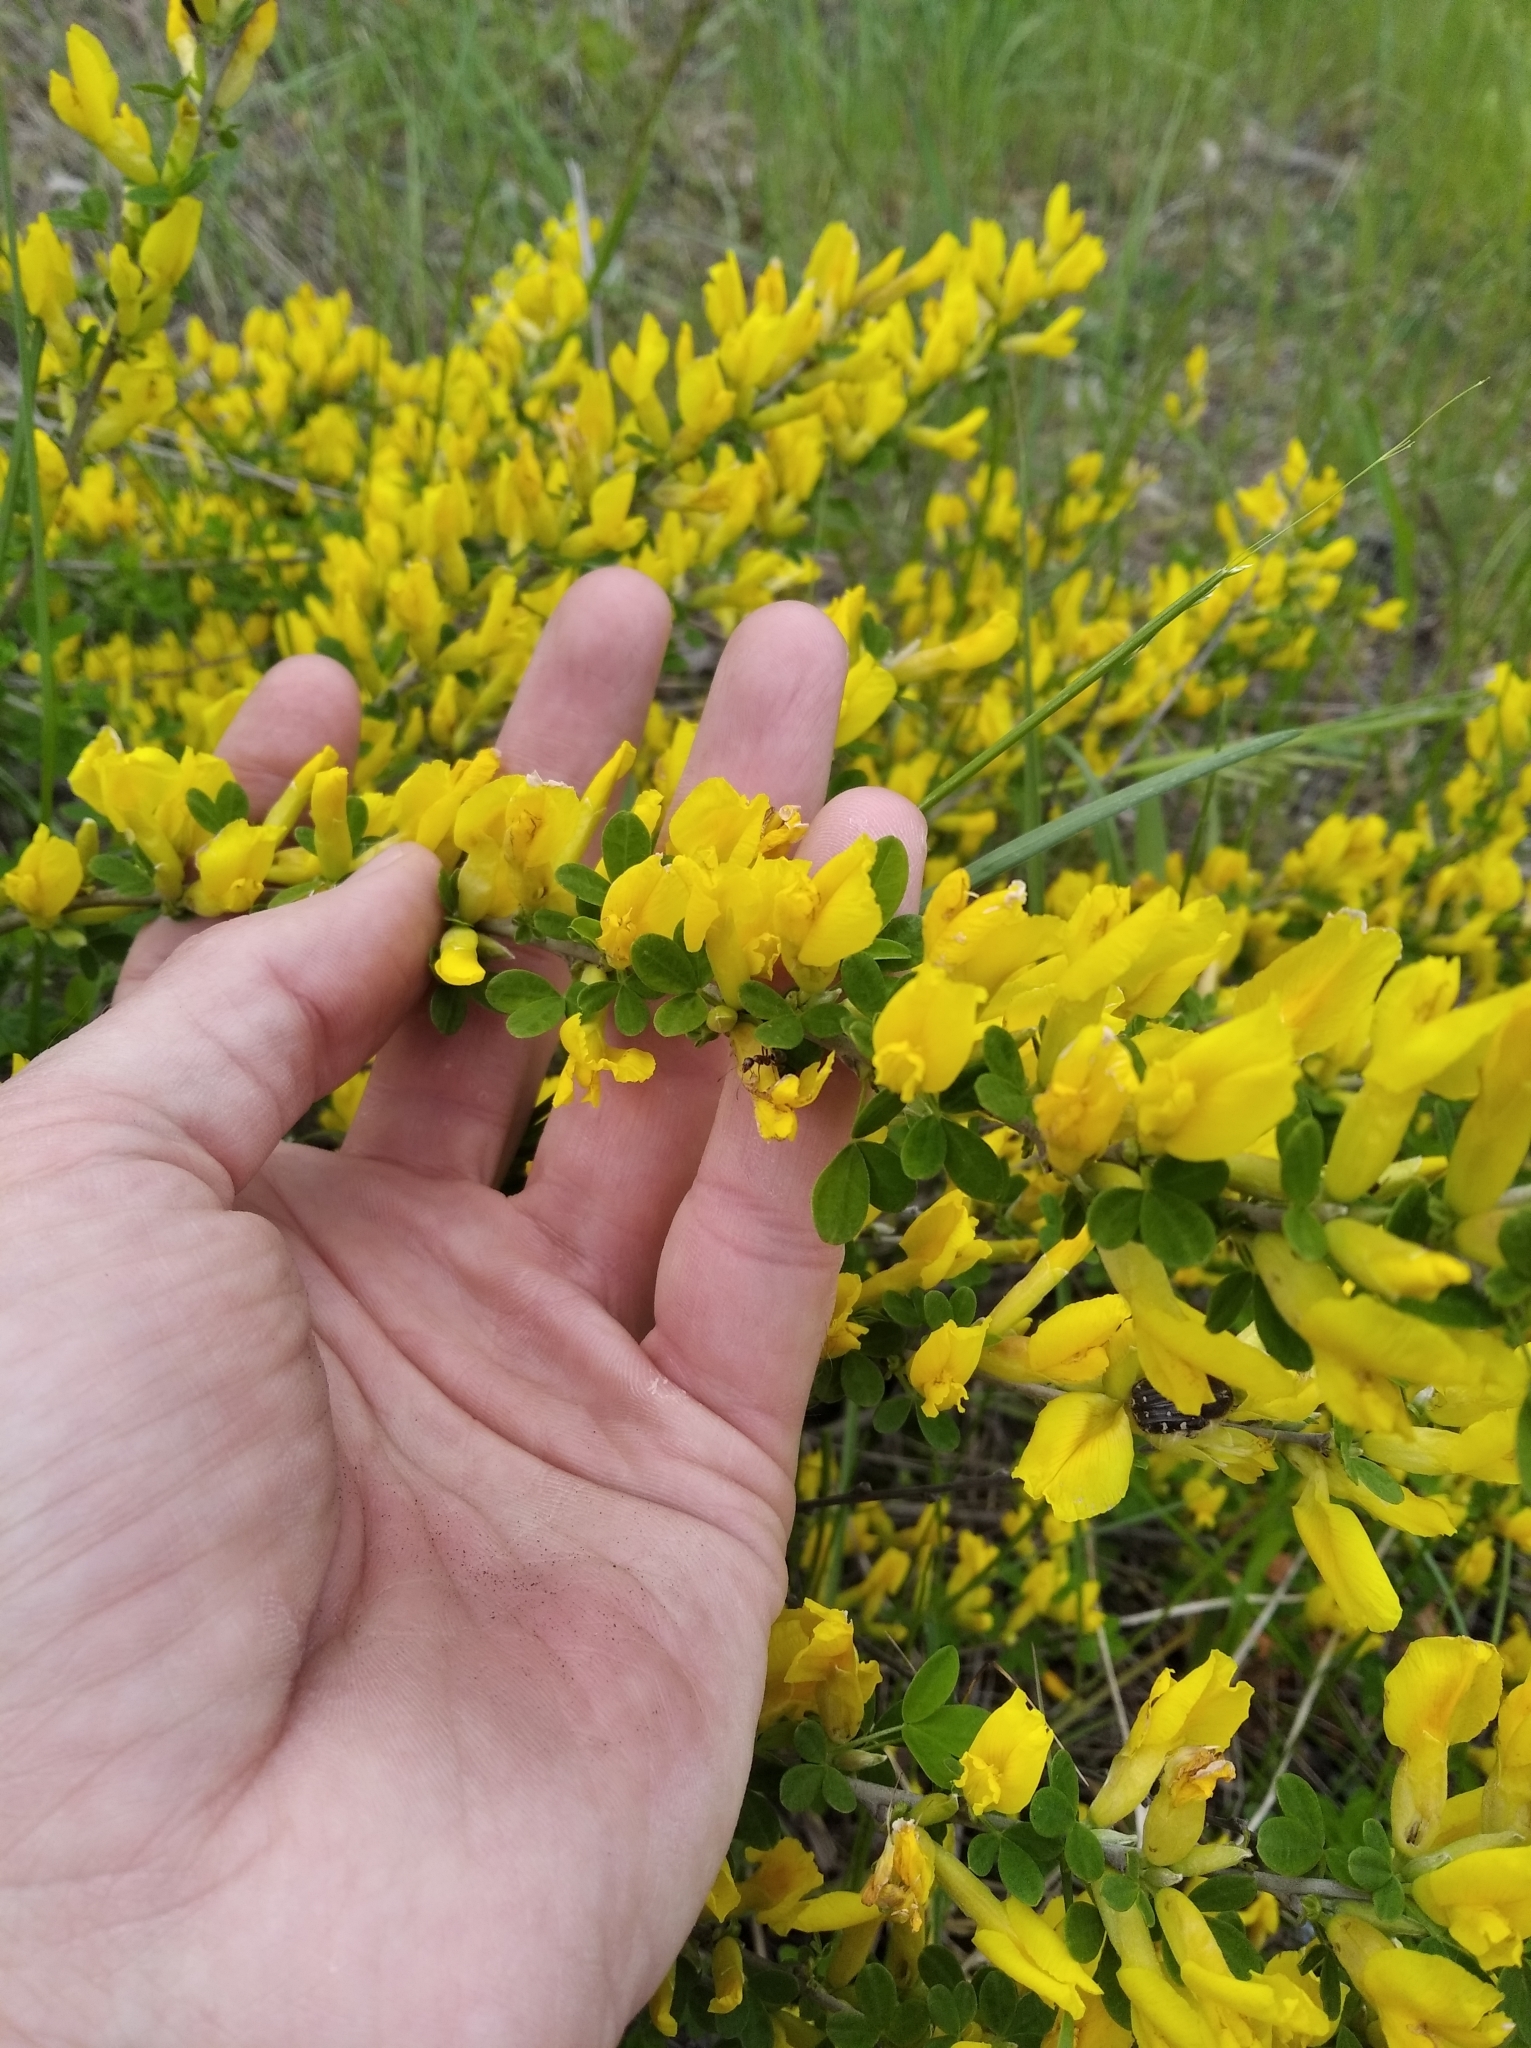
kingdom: Plantae
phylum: Tracheophyta
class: Magnoliopsida
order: Fabales
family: Fabaceae
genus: Chamaecytisus
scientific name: Chamaecytisus ruthenicus
